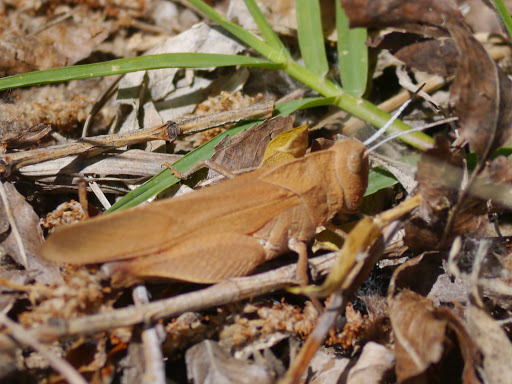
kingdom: Animalia
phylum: Arthropoda
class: Insecta
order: Orthoptera
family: Acrididae
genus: Tomonotus
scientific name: Tomonotus ferruginosus
